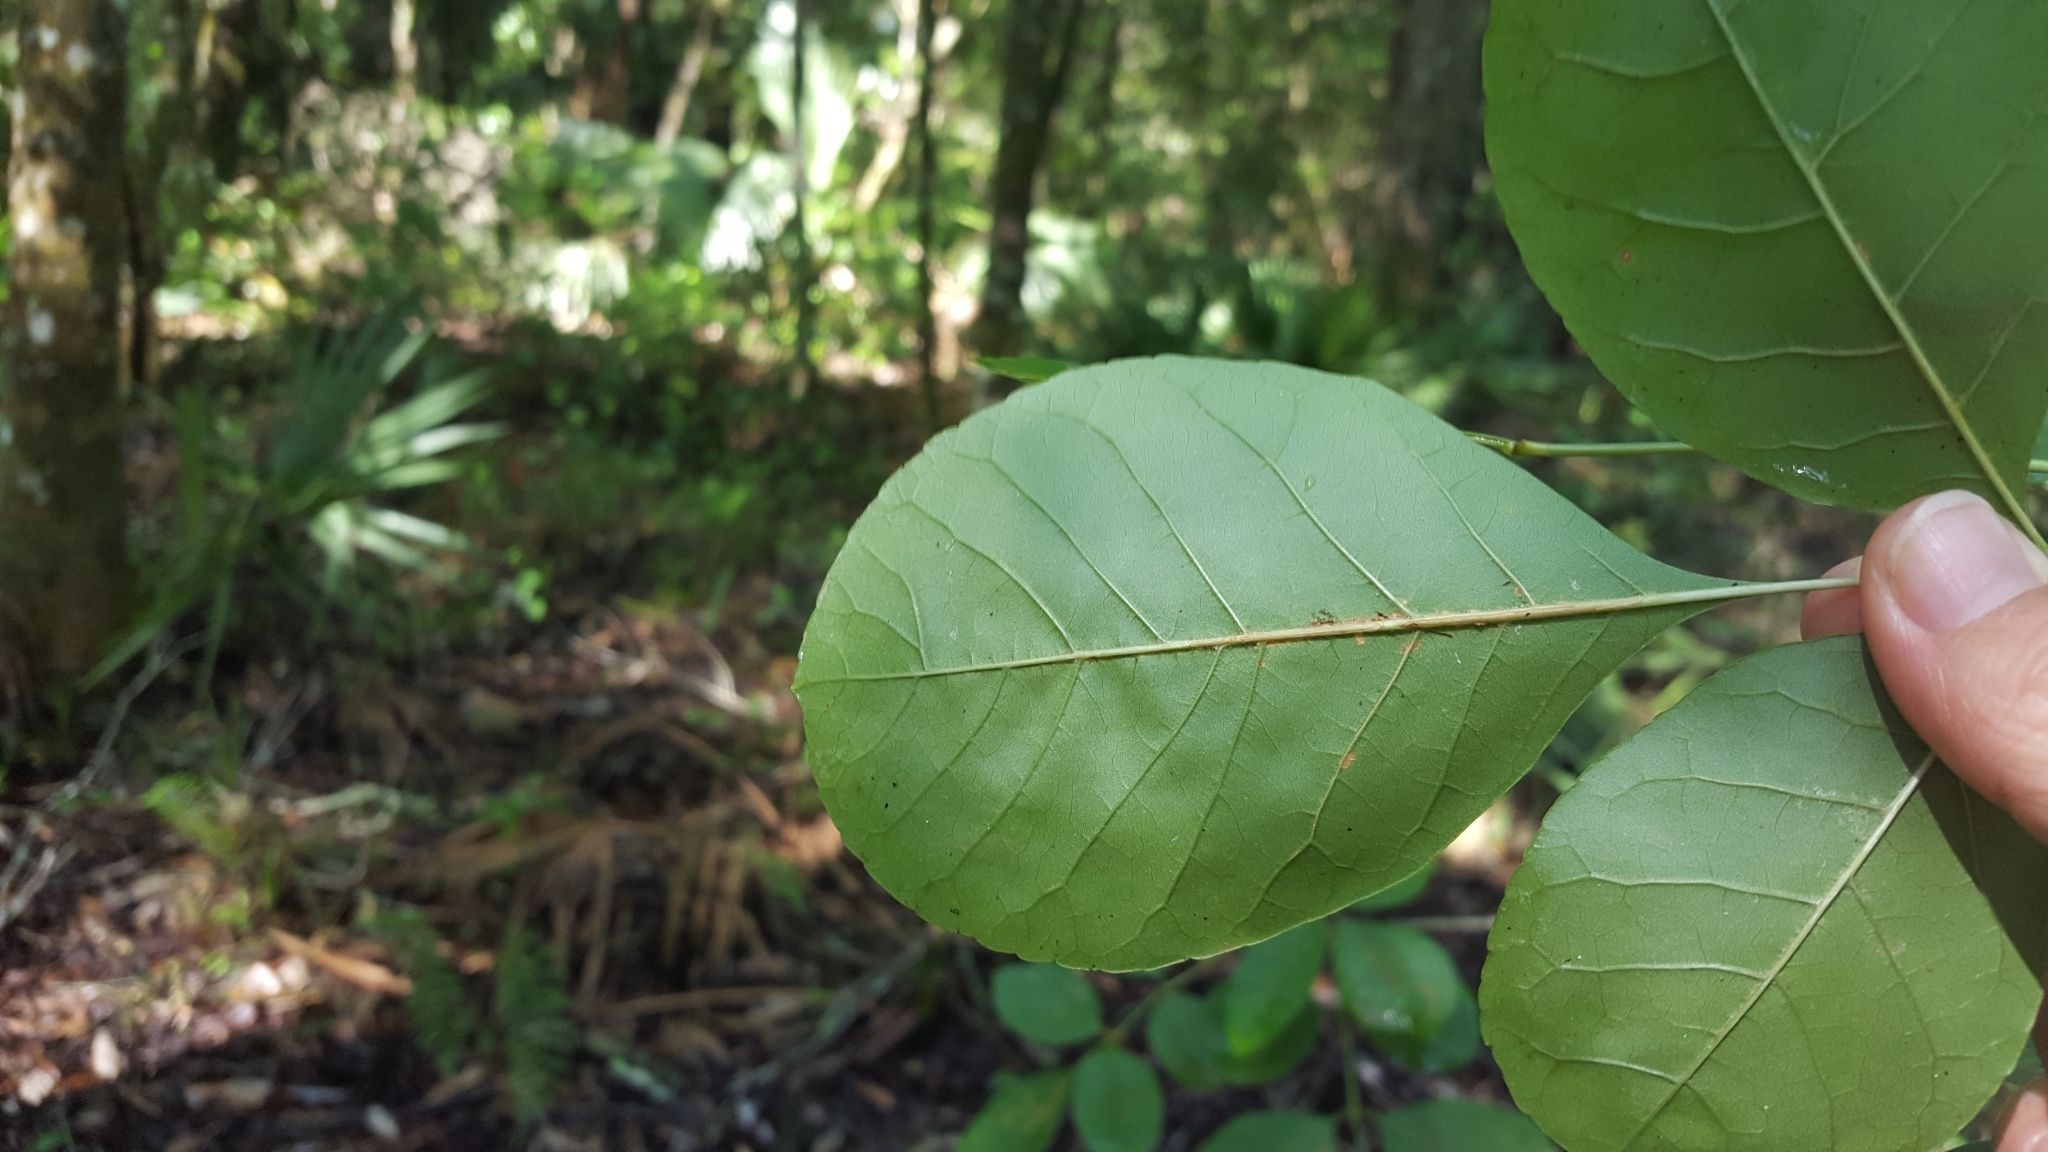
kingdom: Plantae
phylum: Tracheophyta
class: Magnoliopsida
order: Lamiales
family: Oleaceae
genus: Fraxinus
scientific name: Fraxinus caroliniana
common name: Carolina ash
